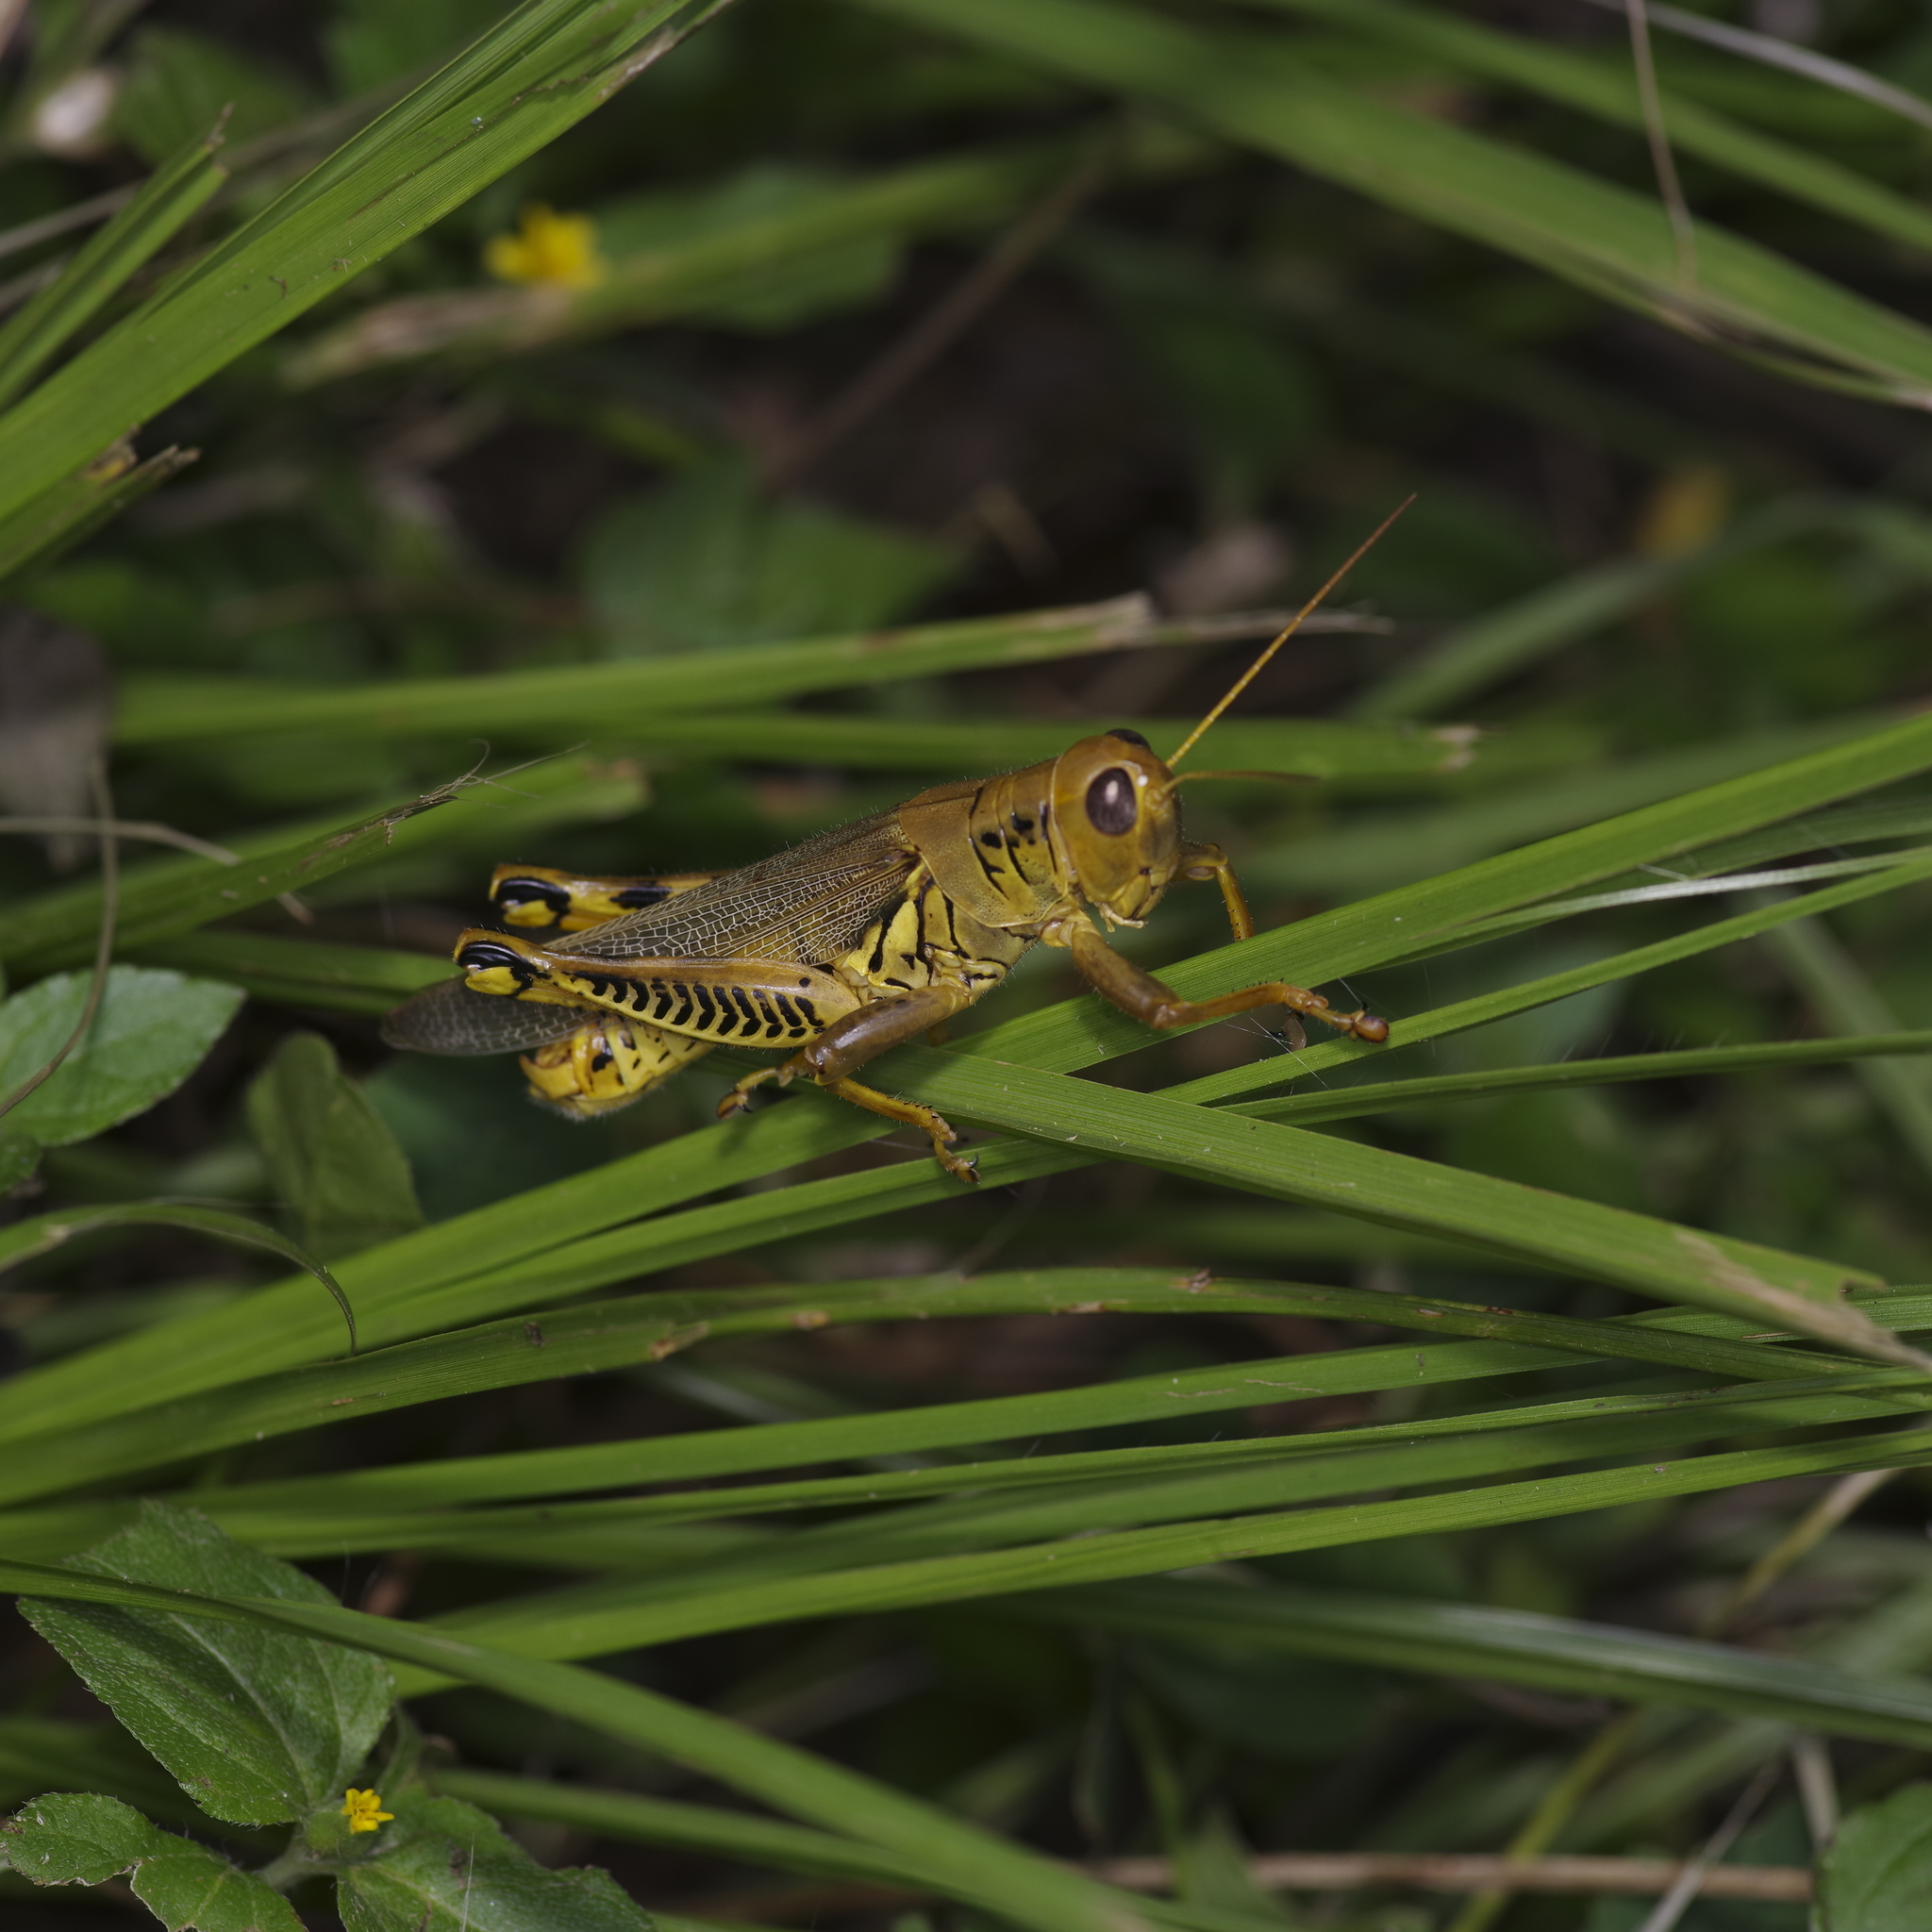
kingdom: Animalia
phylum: Arthropoda
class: Insecta
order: Orthoptera
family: Acrididae
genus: Melanoplus
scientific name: Melanoplus differentialis
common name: Differential grasshopper
